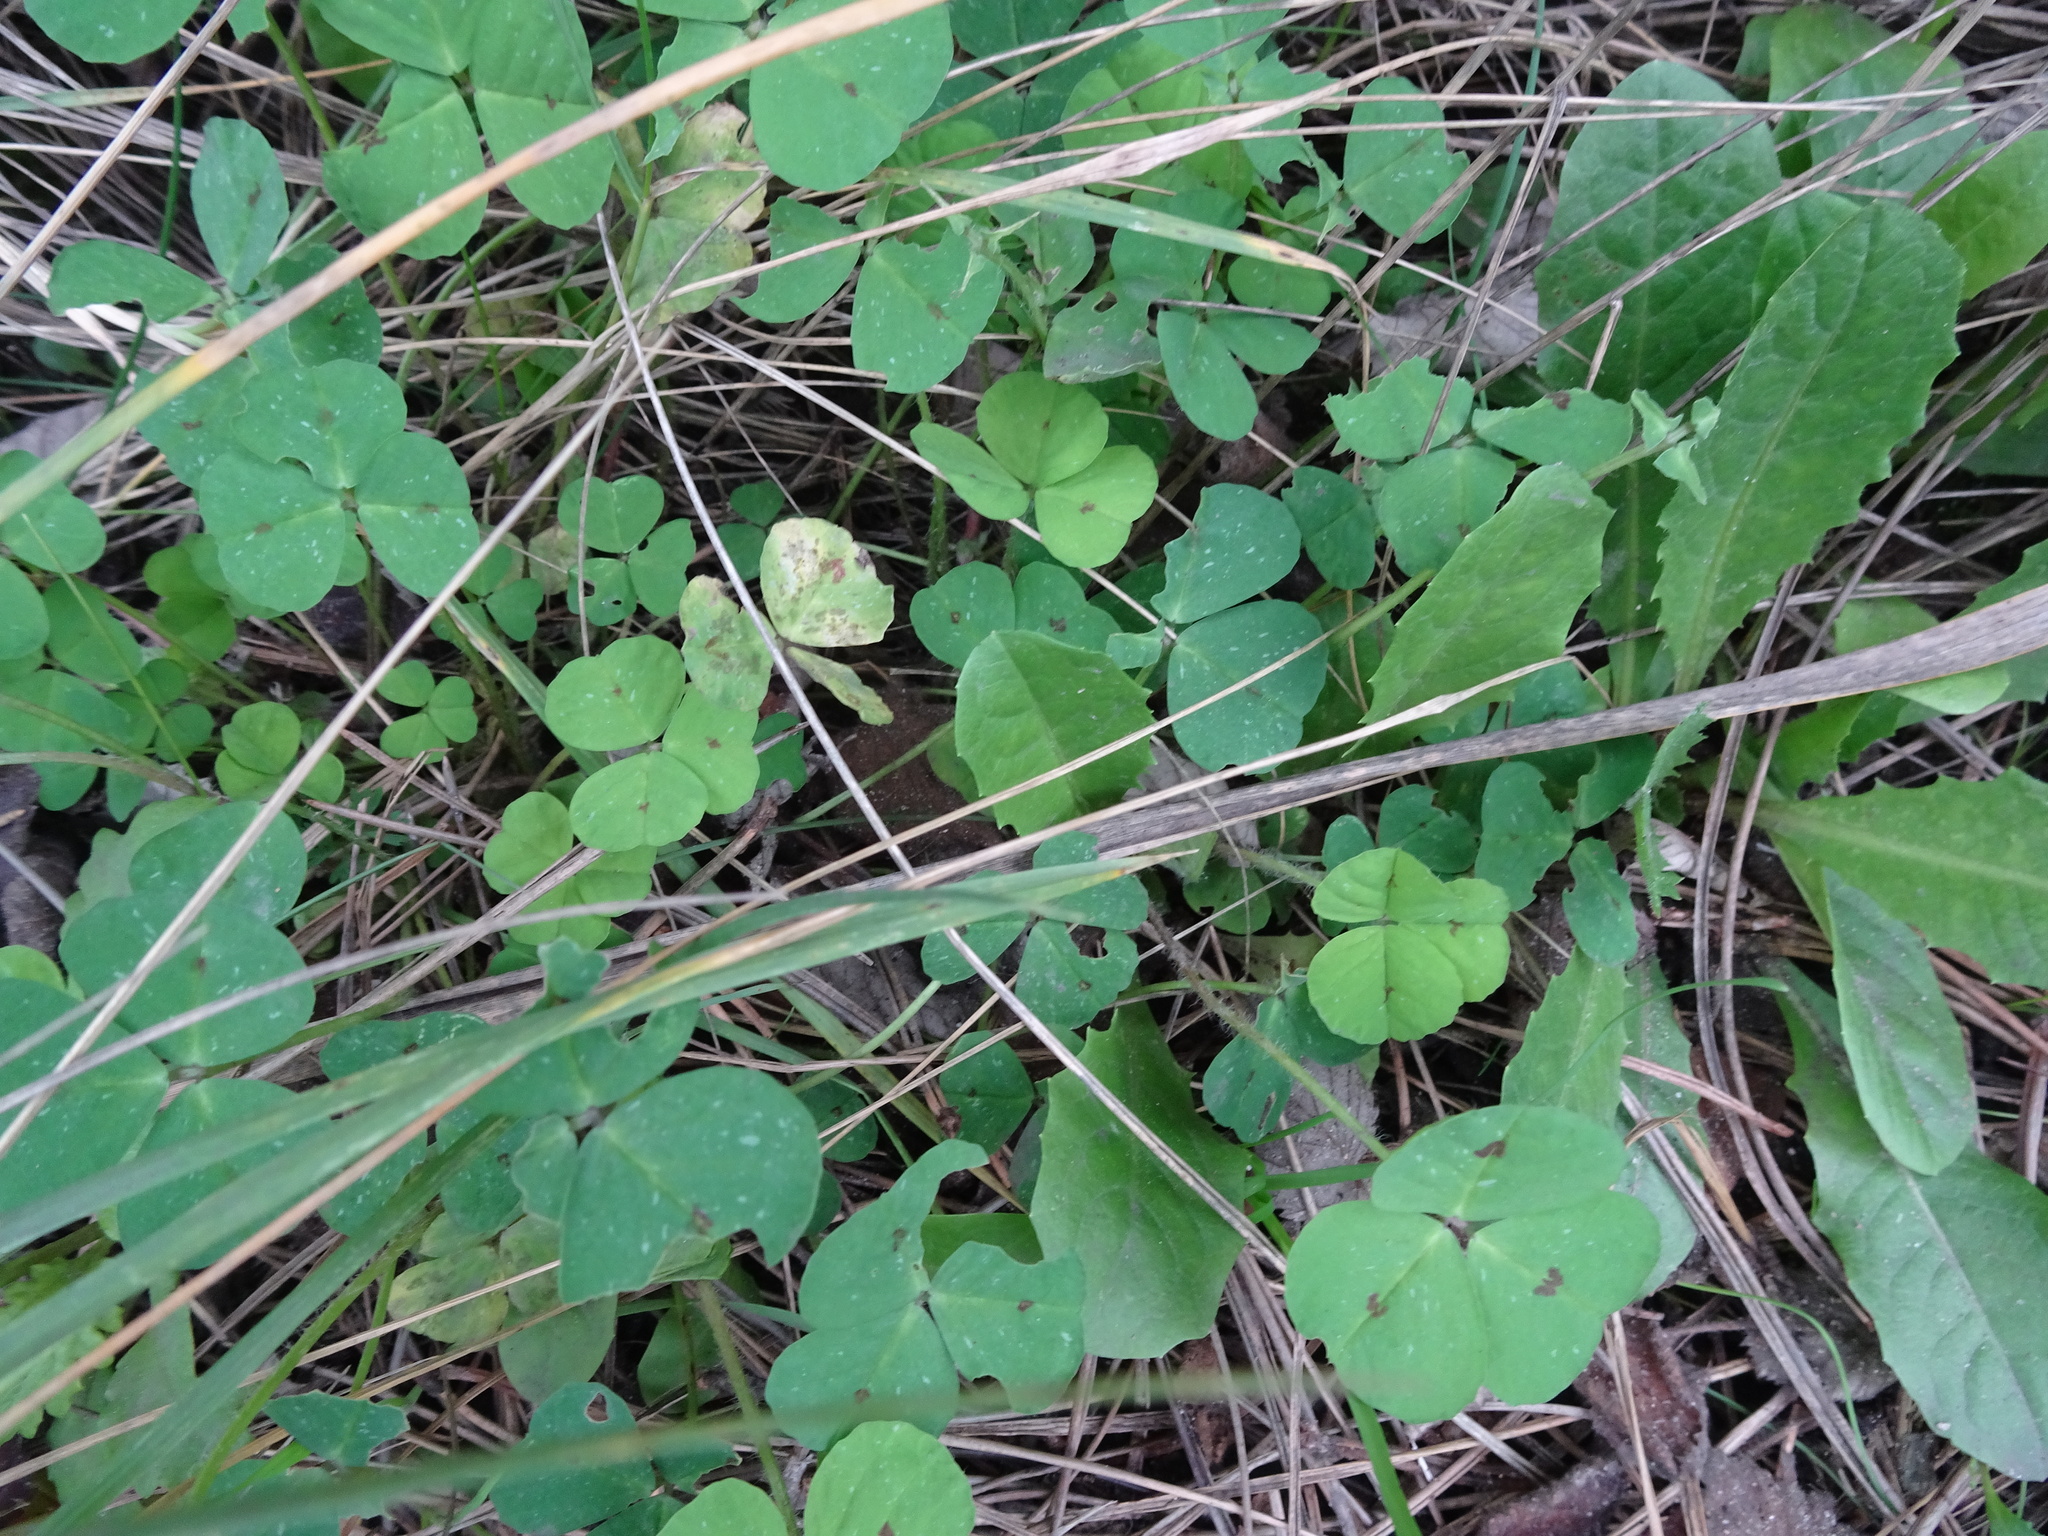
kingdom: Plantae
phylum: Tracheophyta
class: Magnoliopsida
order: Fabales
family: Fabaceae
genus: Medicago
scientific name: Medicago arabica
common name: Spotted medick
